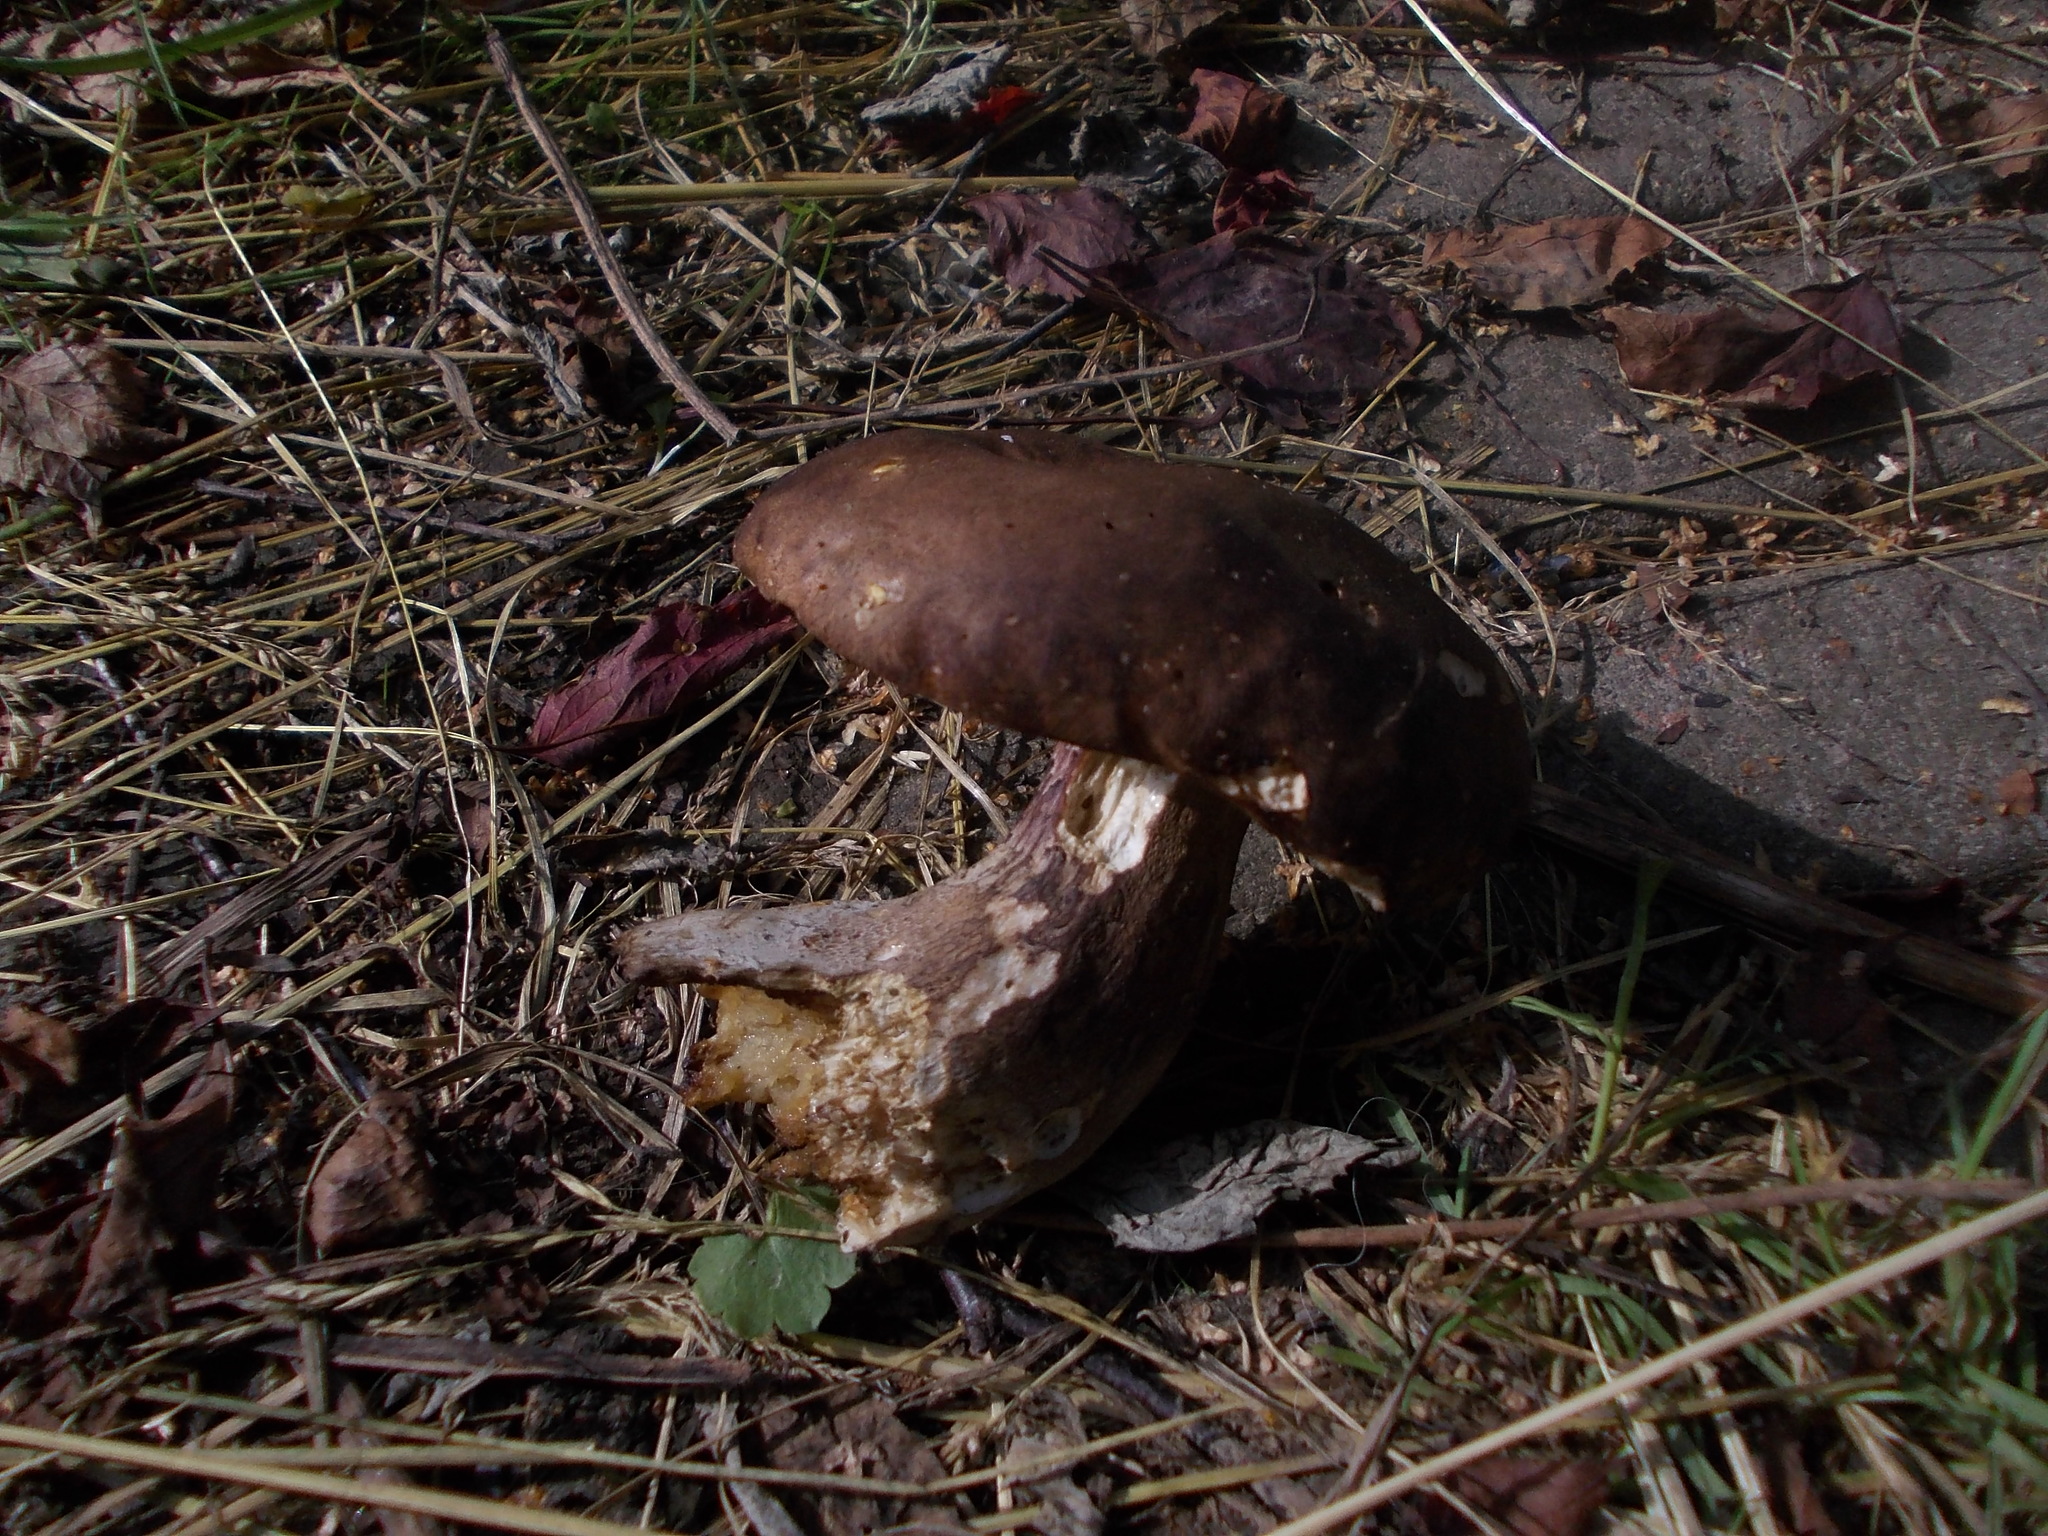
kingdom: Fungi
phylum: Basidiomycota
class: Agaricomycetes
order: Boletales
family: Boletaceae
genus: Boletus
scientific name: Boletus reticulatus
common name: Summer bolete
